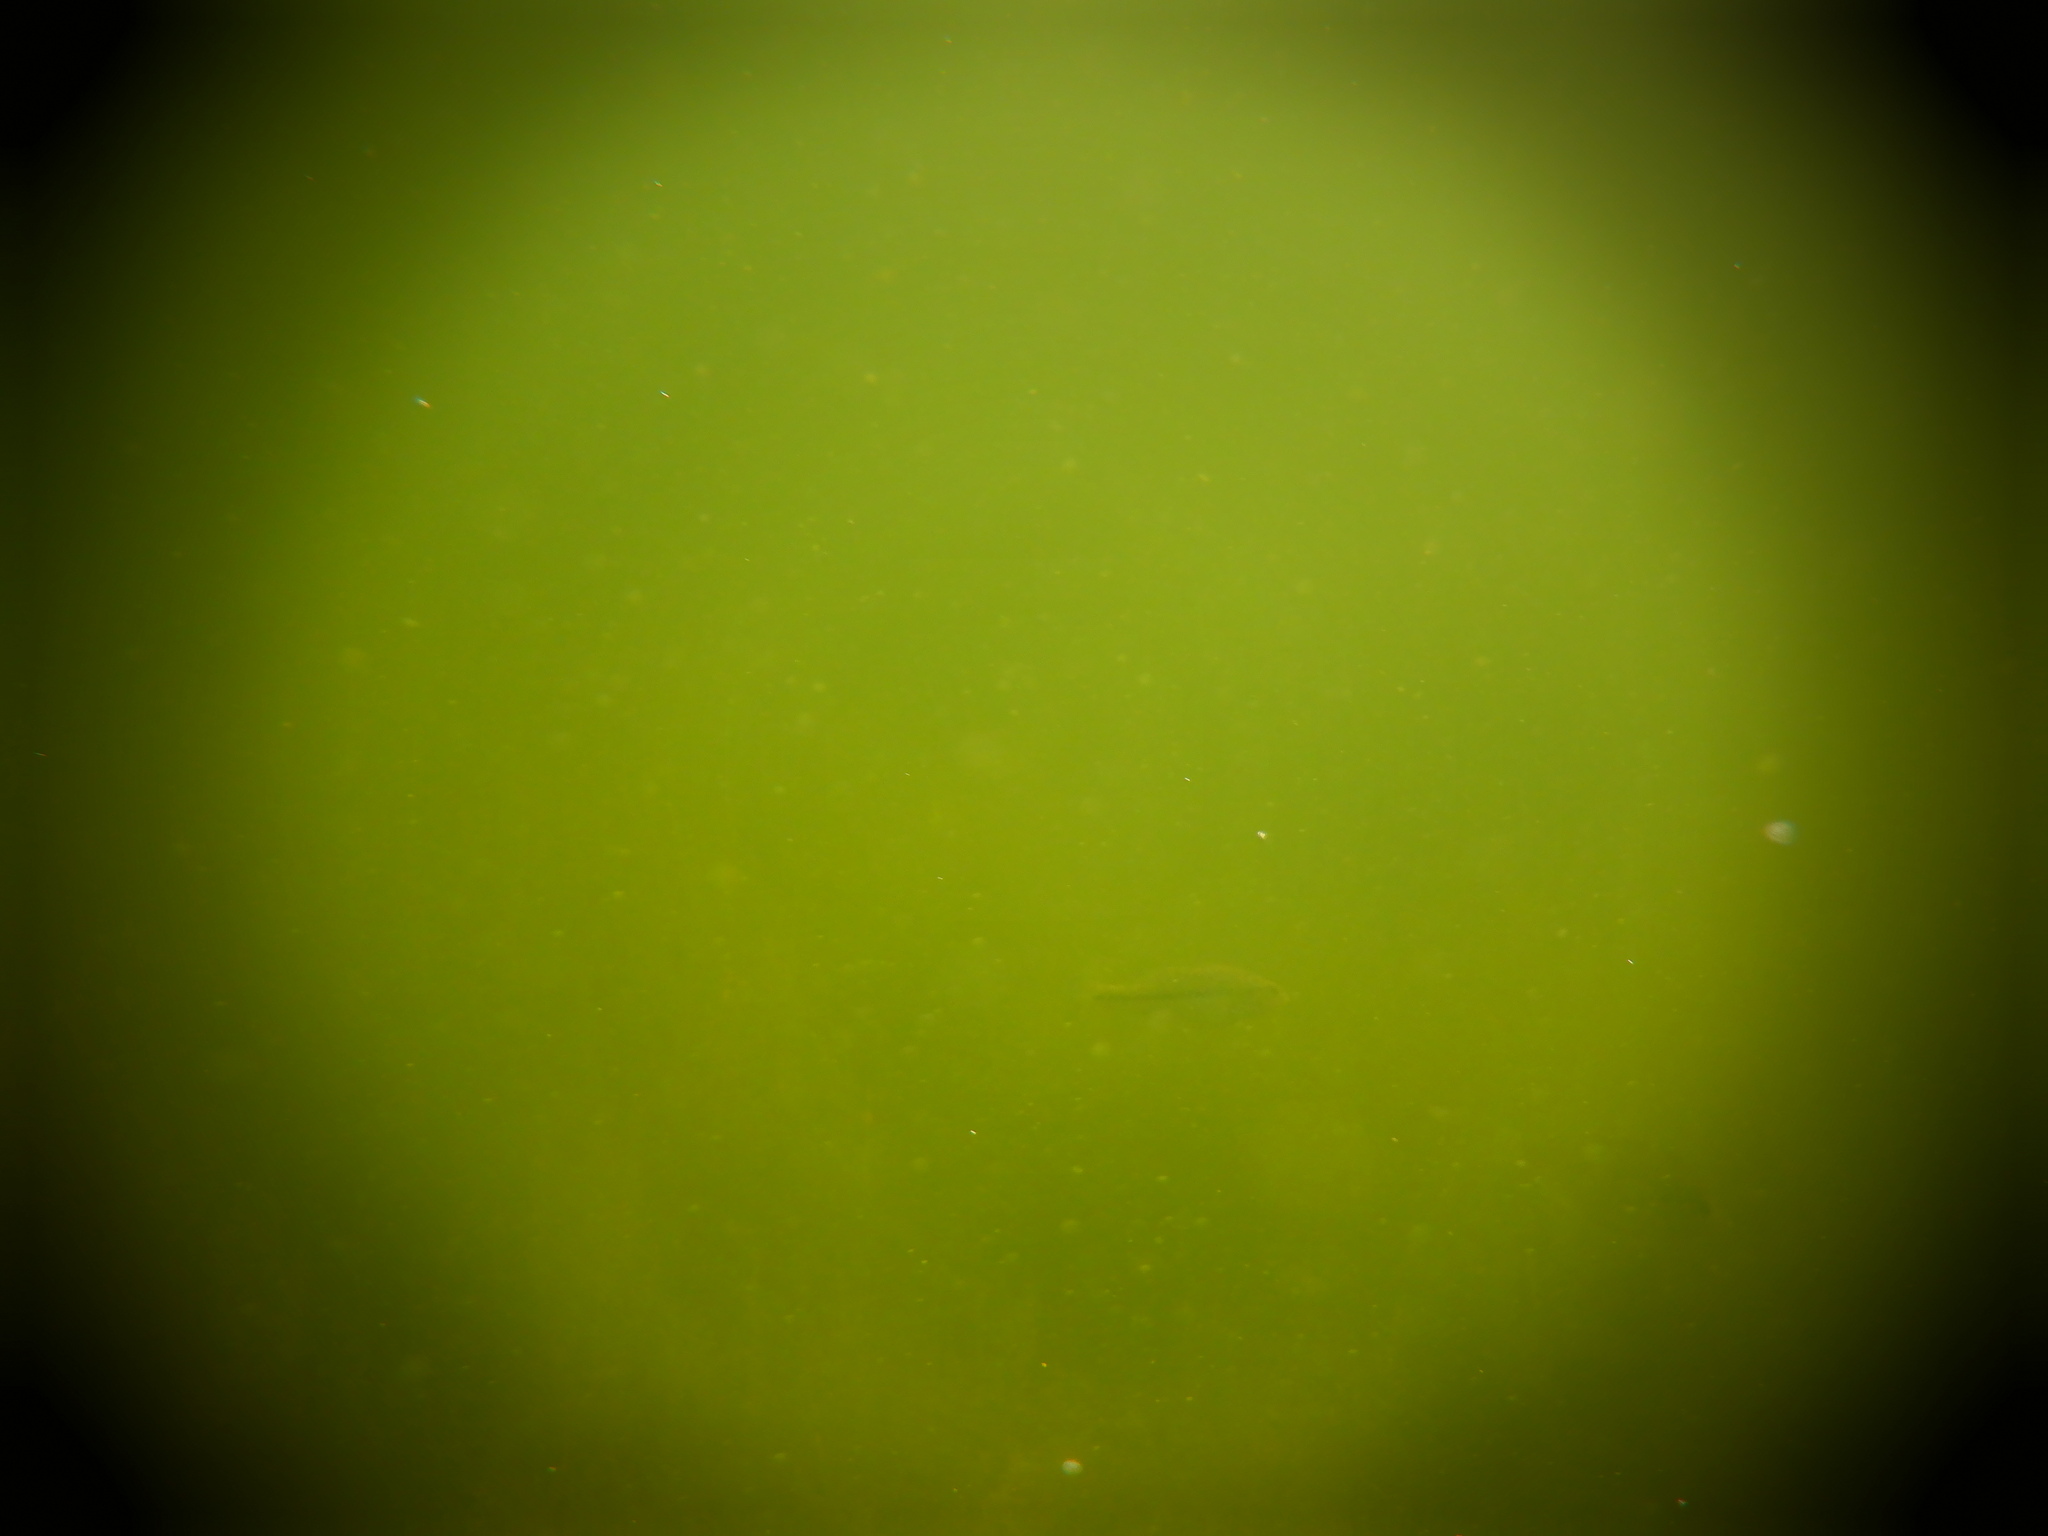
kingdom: Animalia
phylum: Chordata
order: Perciformes
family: Centrarchidae
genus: Micropterus
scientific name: Micropterus
